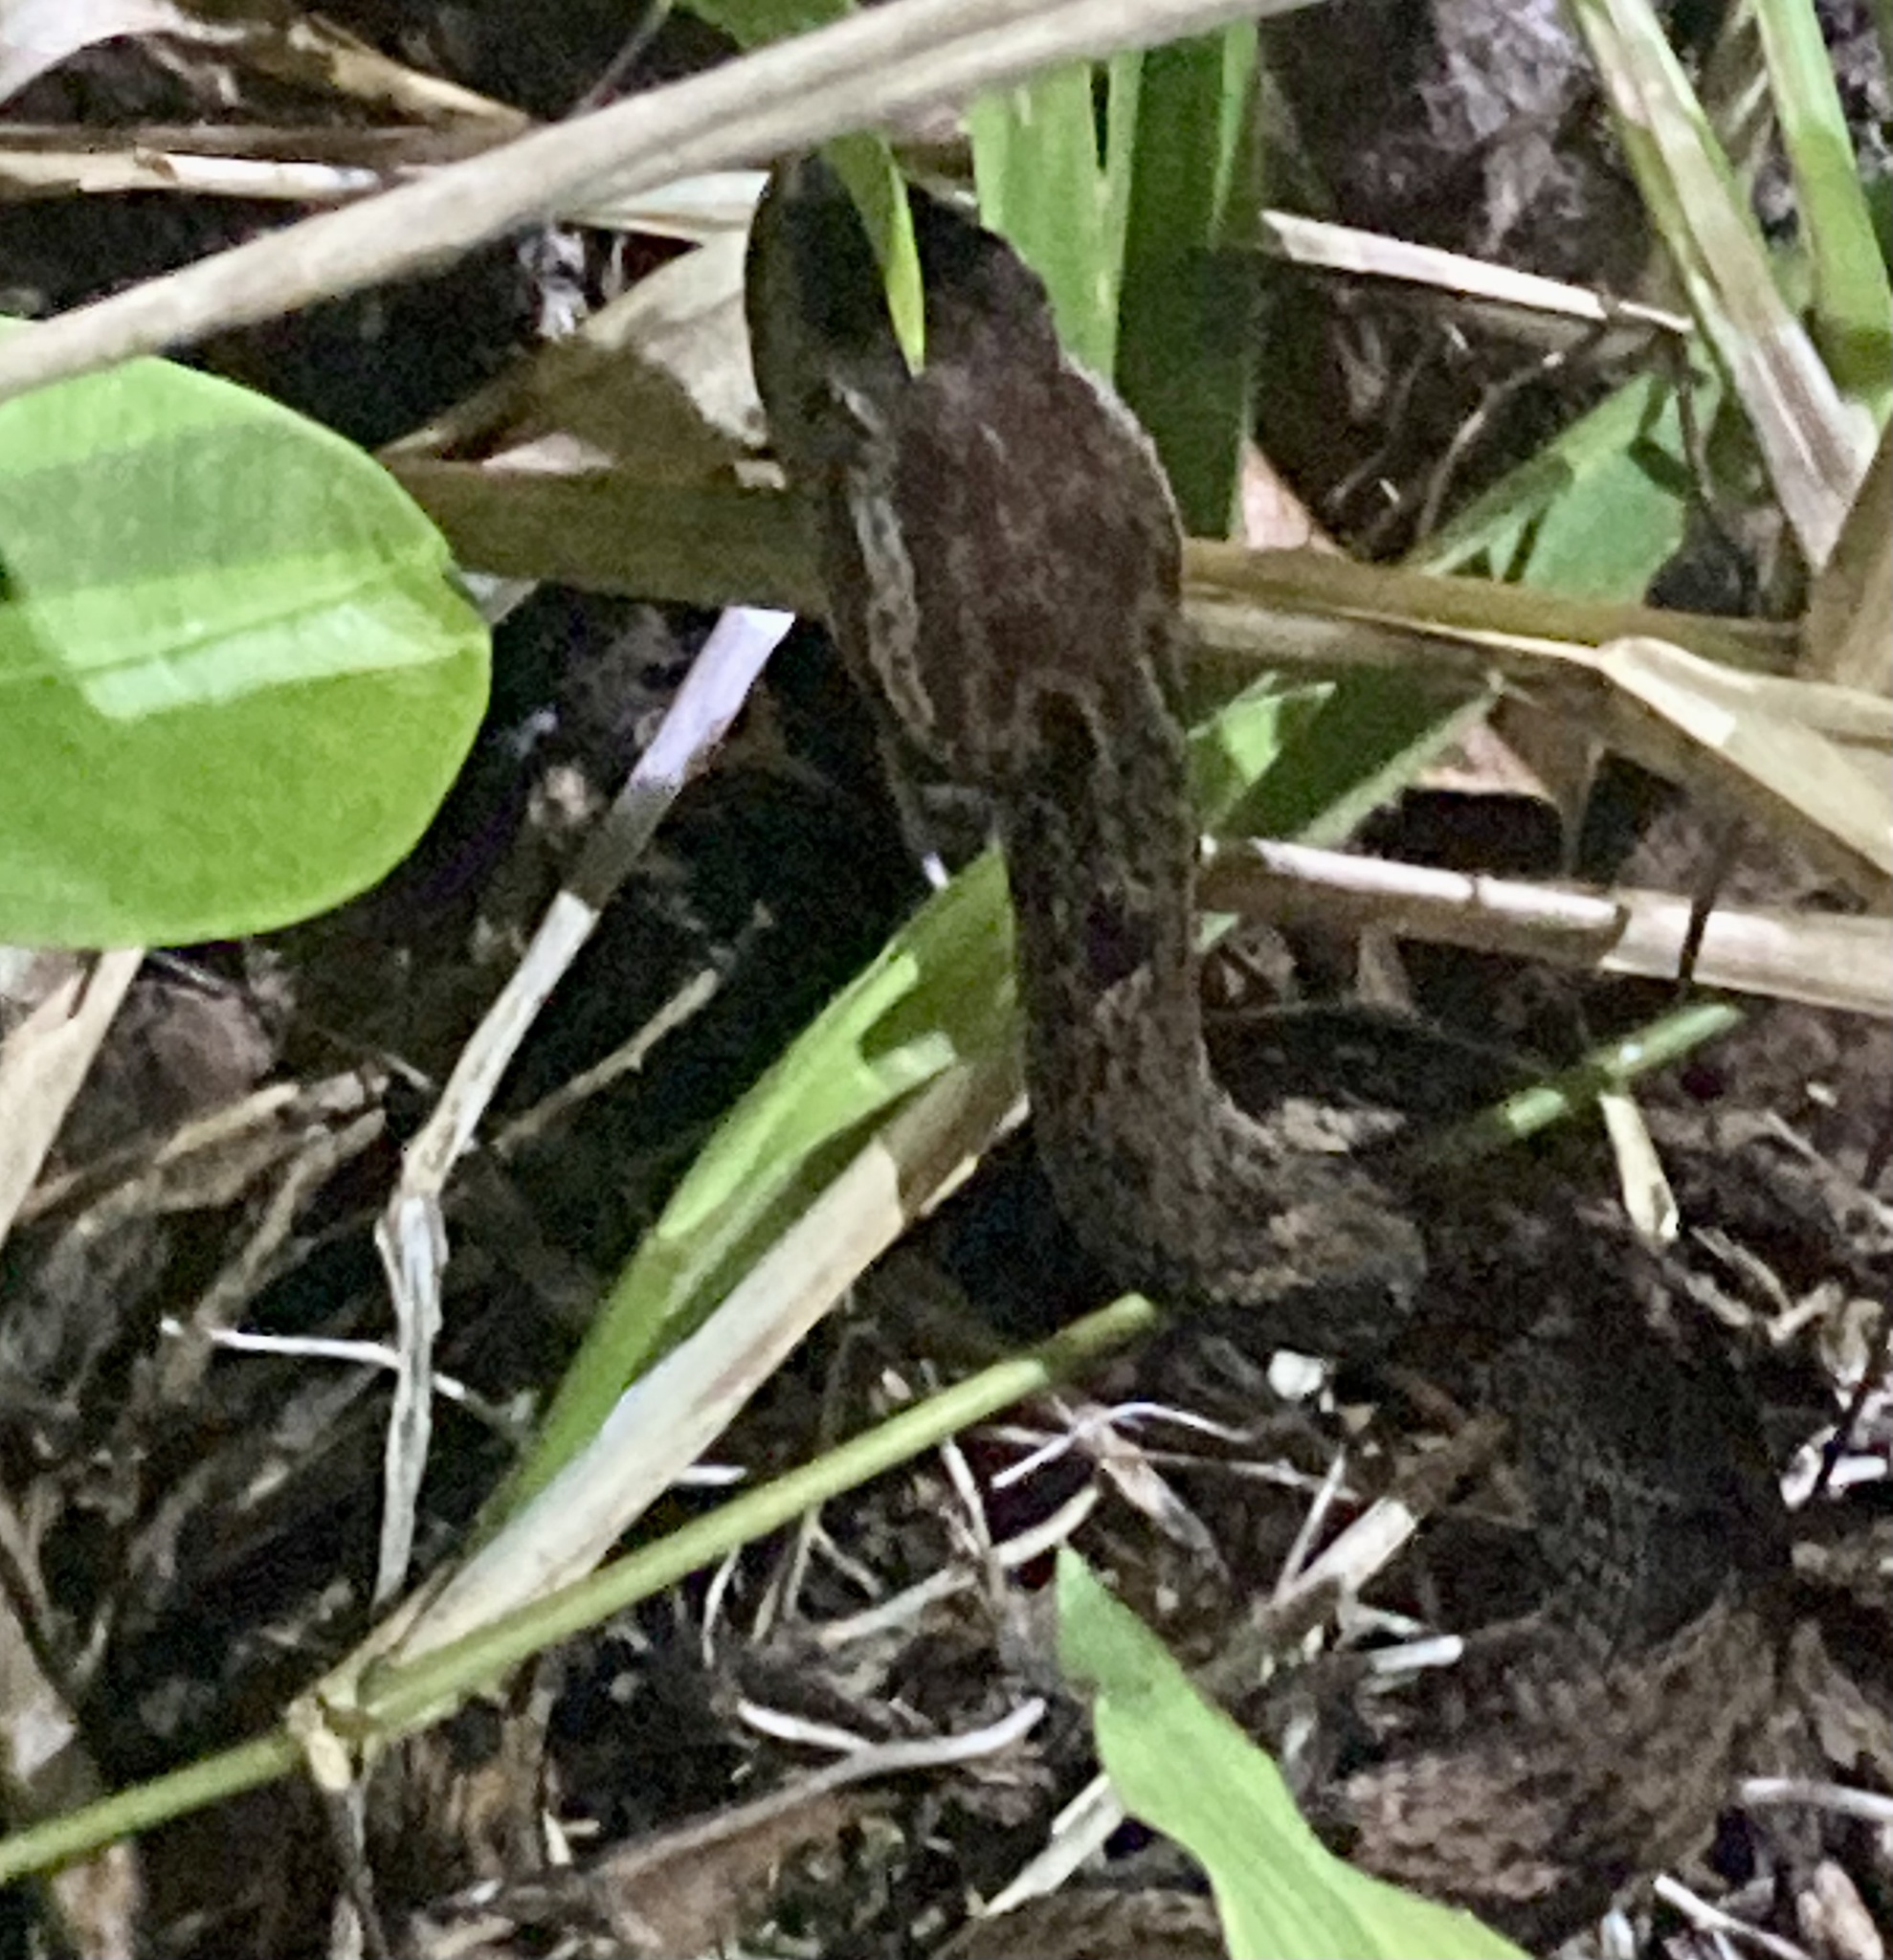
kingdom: Animalia
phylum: Chordata
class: Squamata
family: Viperidae
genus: Bothrops
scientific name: Bothrops asper
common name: Terciopelo
